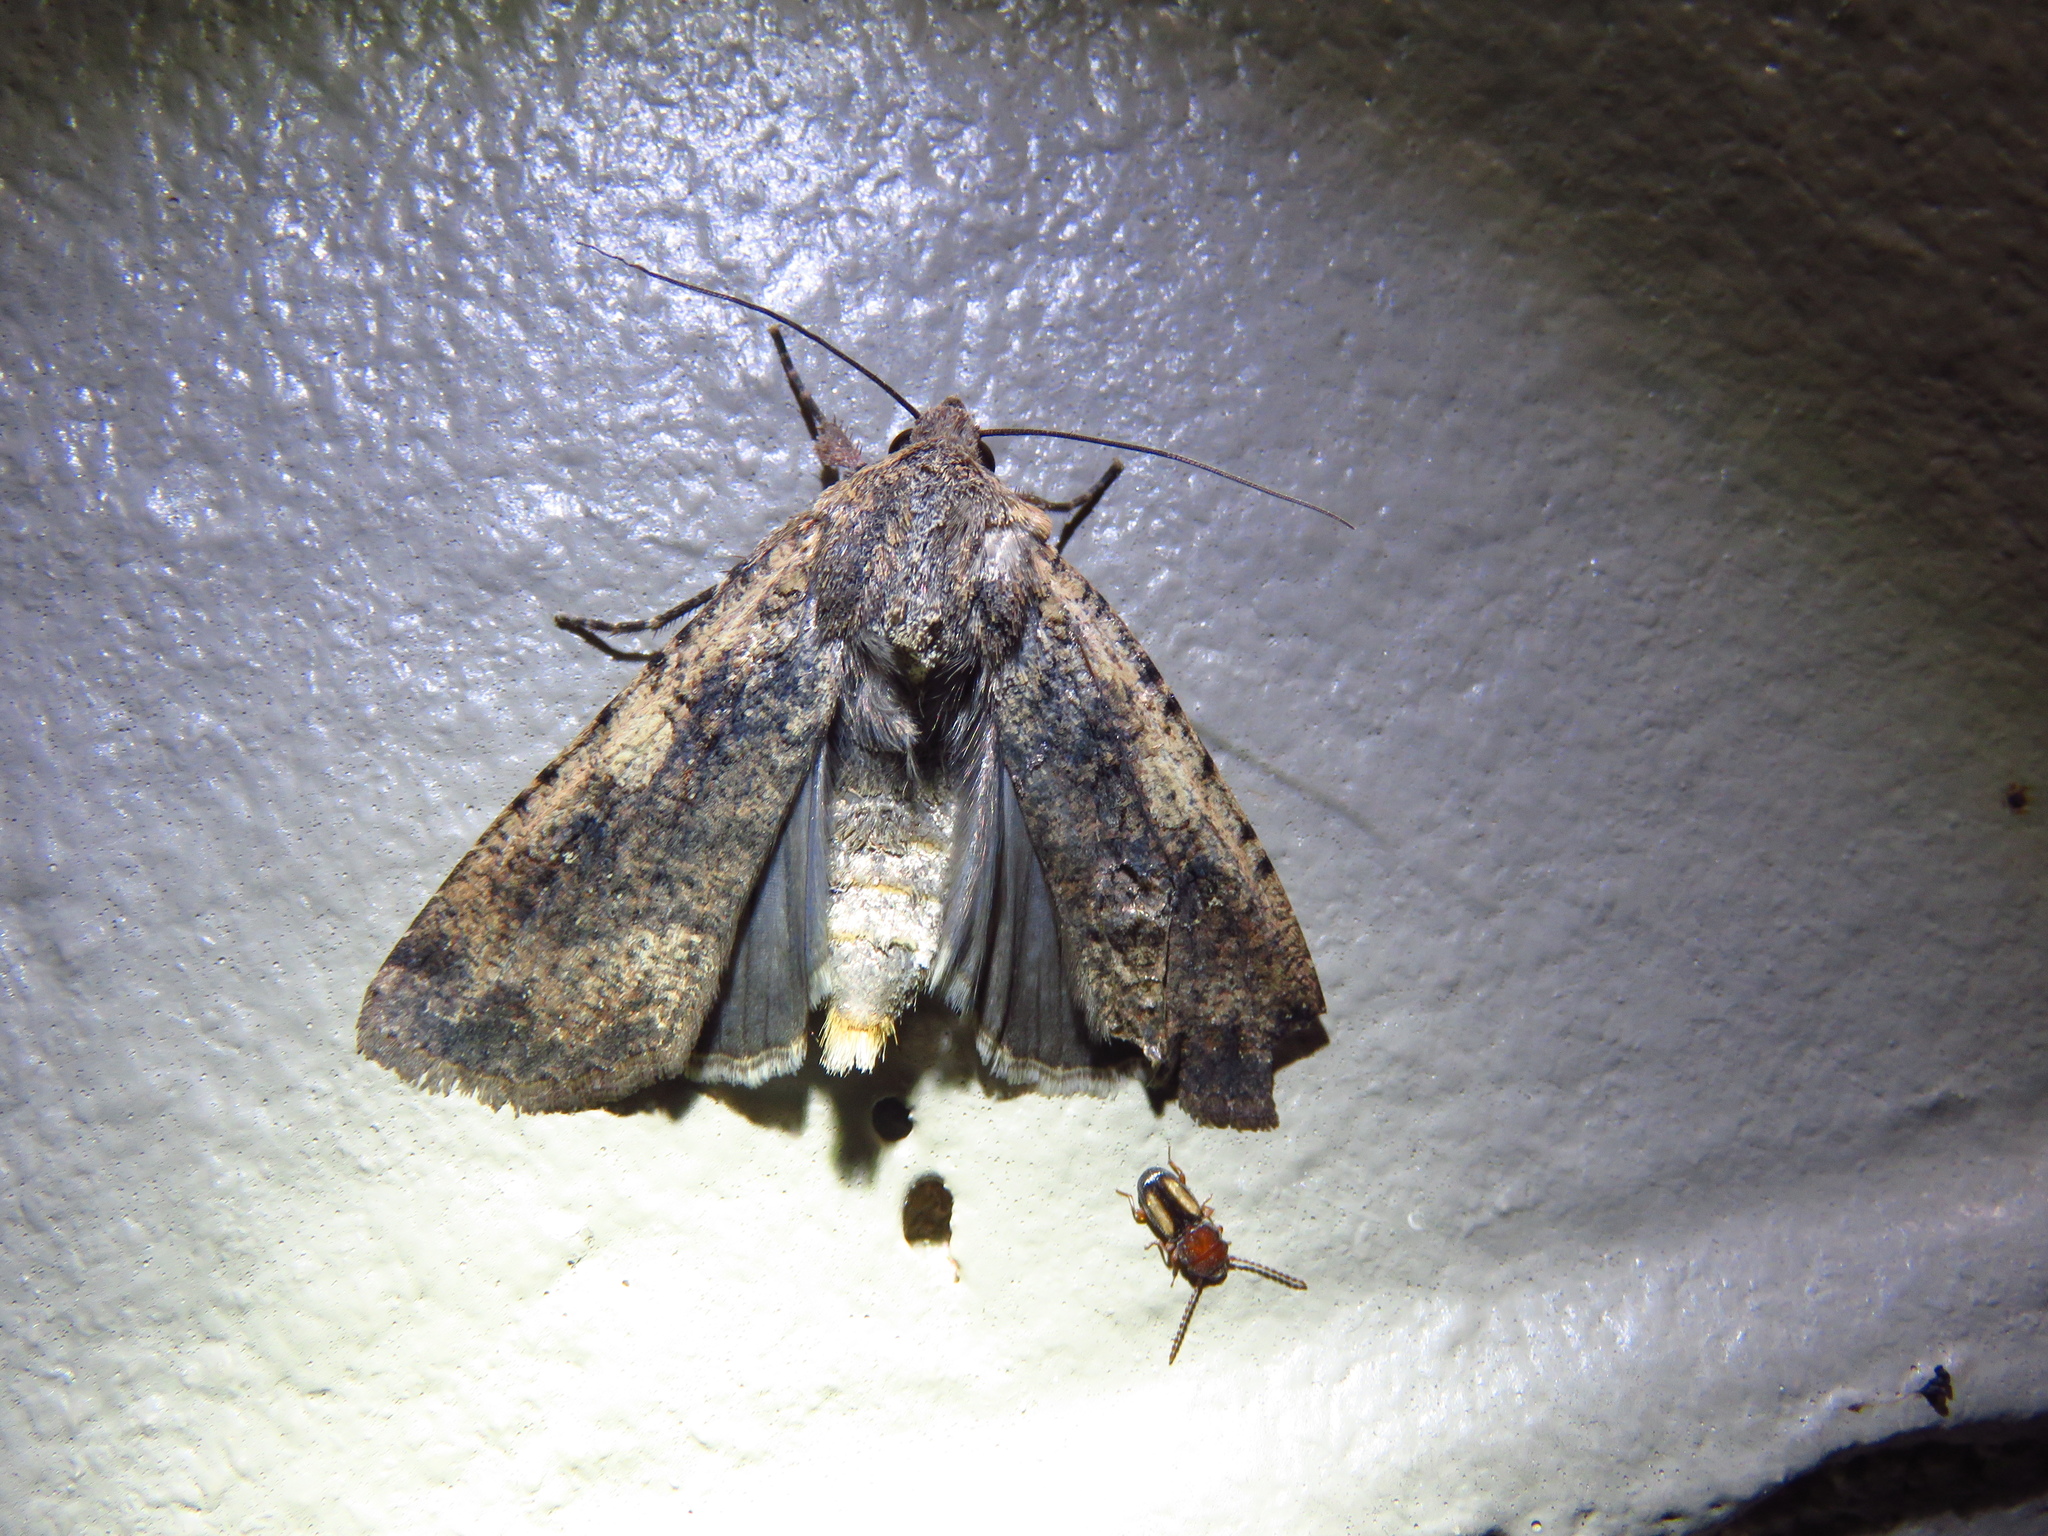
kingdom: Animalia
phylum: Arthropoda
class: Insecta
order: Lepidoptera
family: Noctuidae
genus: Peridroma
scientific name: Peridroma saucia
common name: Pearly underwing
